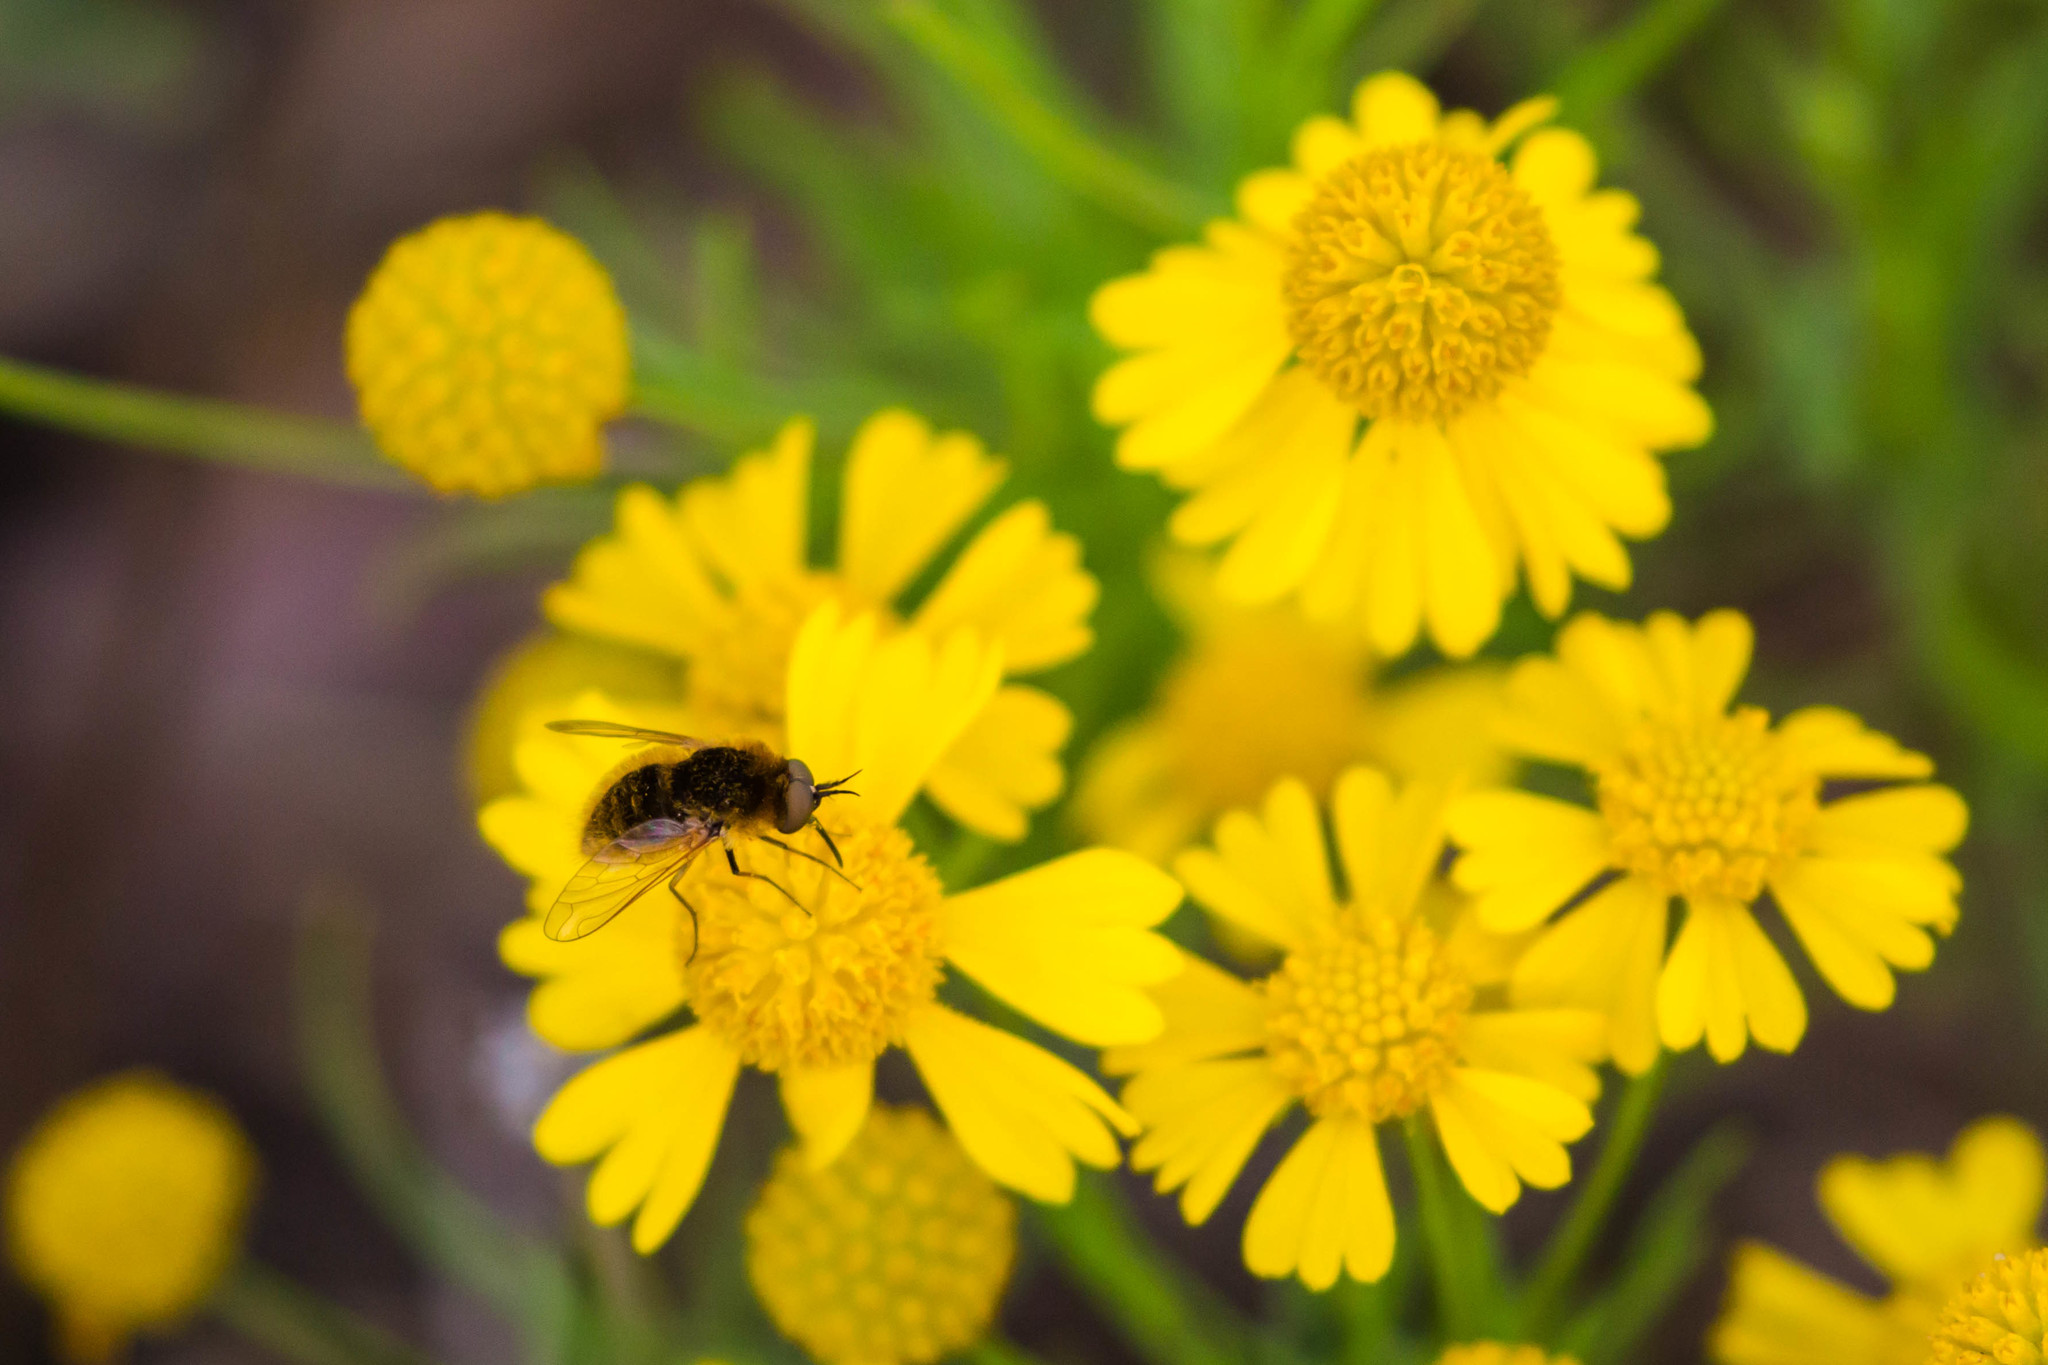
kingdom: Animalia
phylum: Arthropoda
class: Insecta
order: Diptera
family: Bombyliidae
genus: Sparnopolius
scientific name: Sparnopolius confusus
